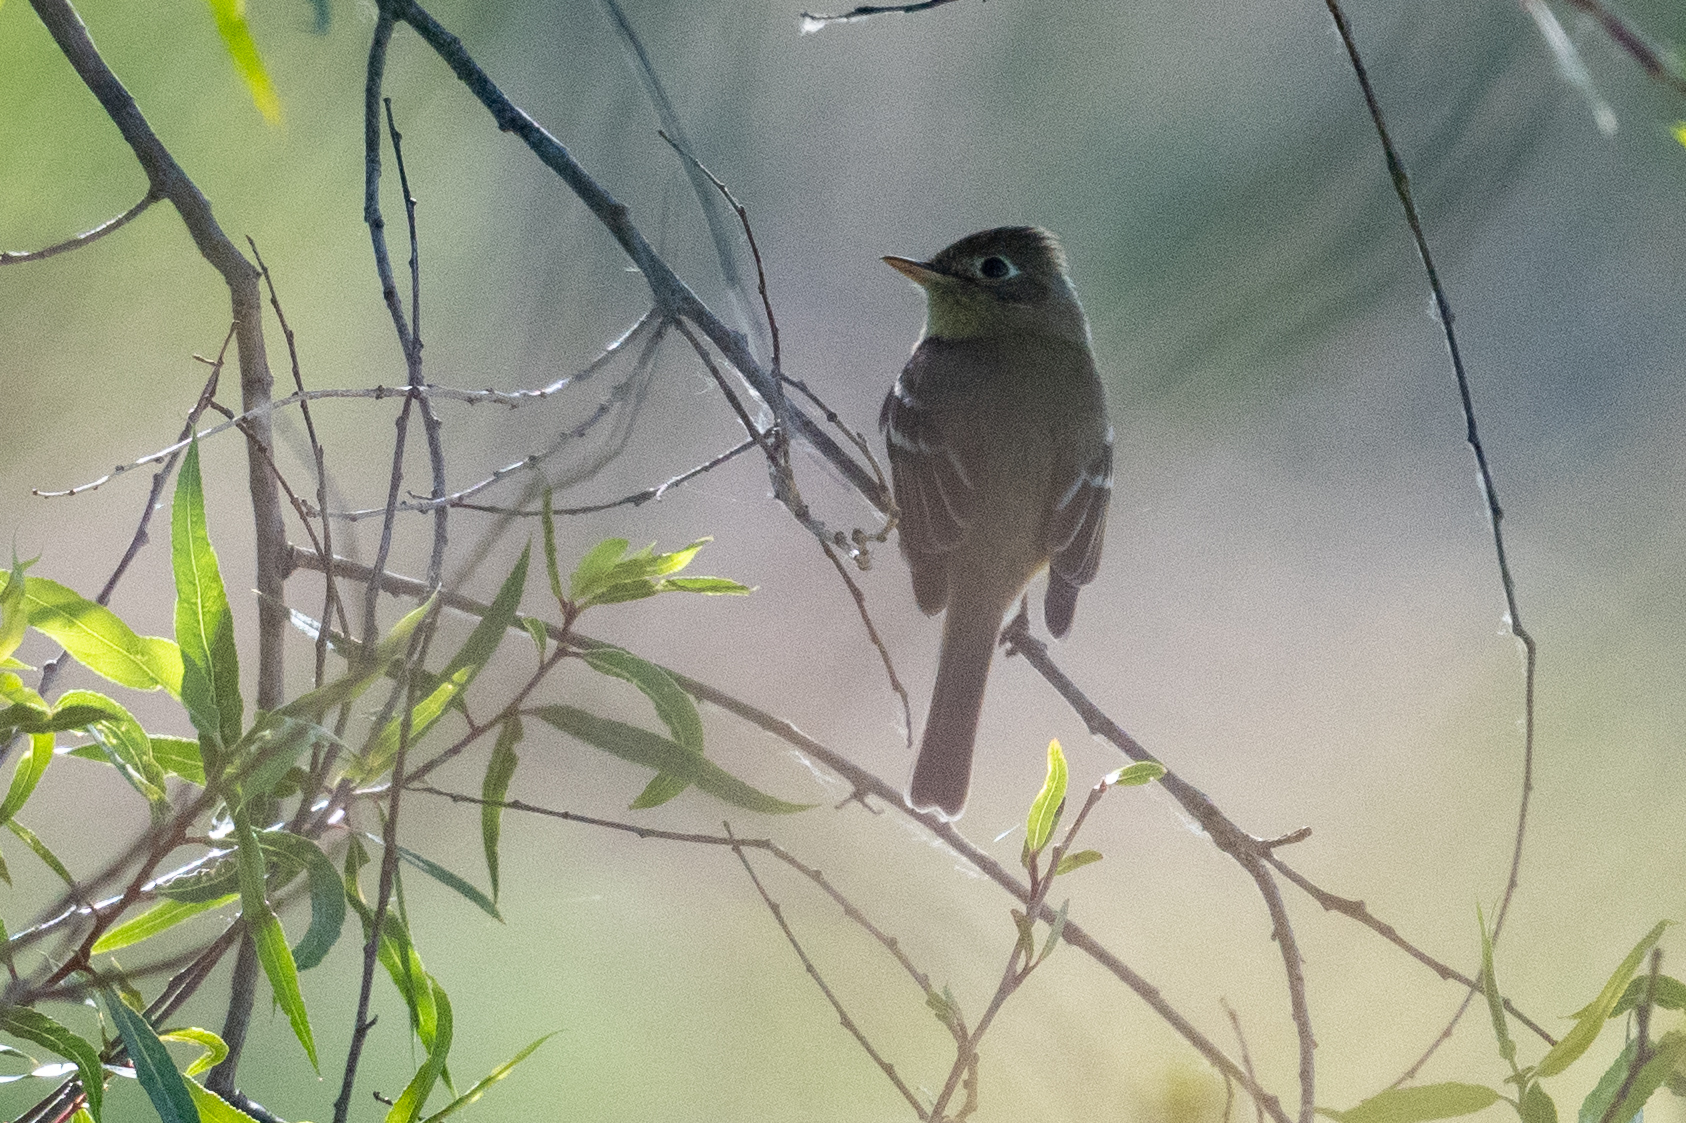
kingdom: Animalia
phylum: Chordata
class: Aves
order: Passeriformes
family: Tyrannidae
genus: Empidonax
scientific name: Empidonax difficilis
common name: Pacific-slope flycatcher
